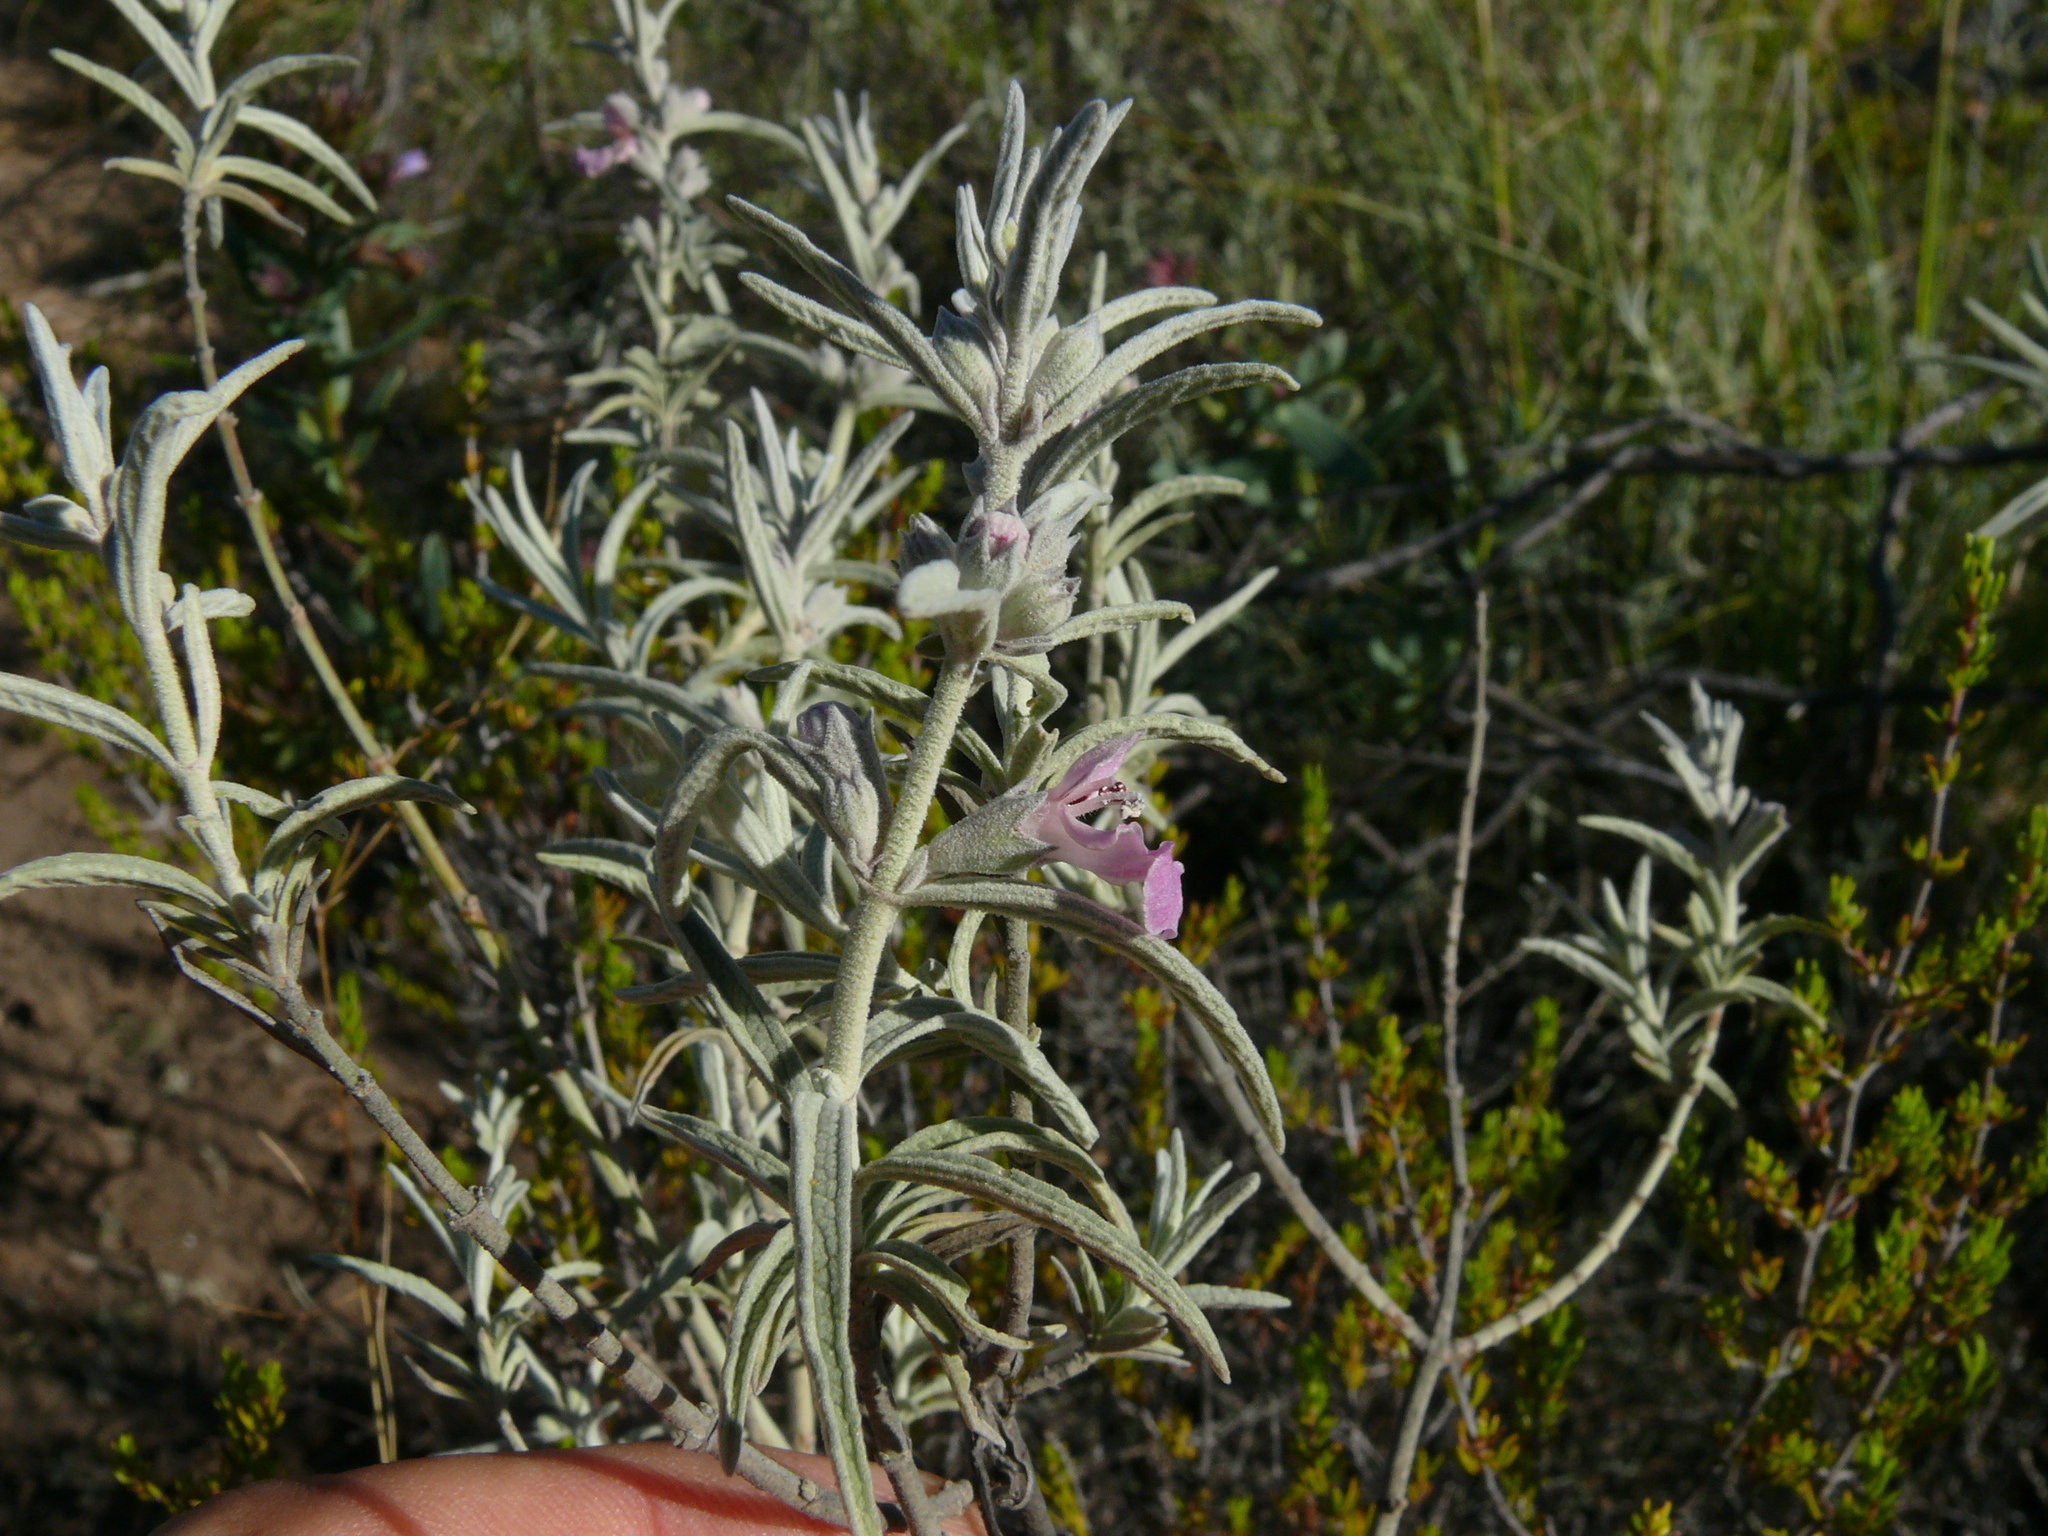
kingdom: Plantae
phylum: Tracheophyta
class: Magnoliopsida
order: Lamiales
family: Lamiaceae
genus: Stachys
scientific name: Stachys rugosa
